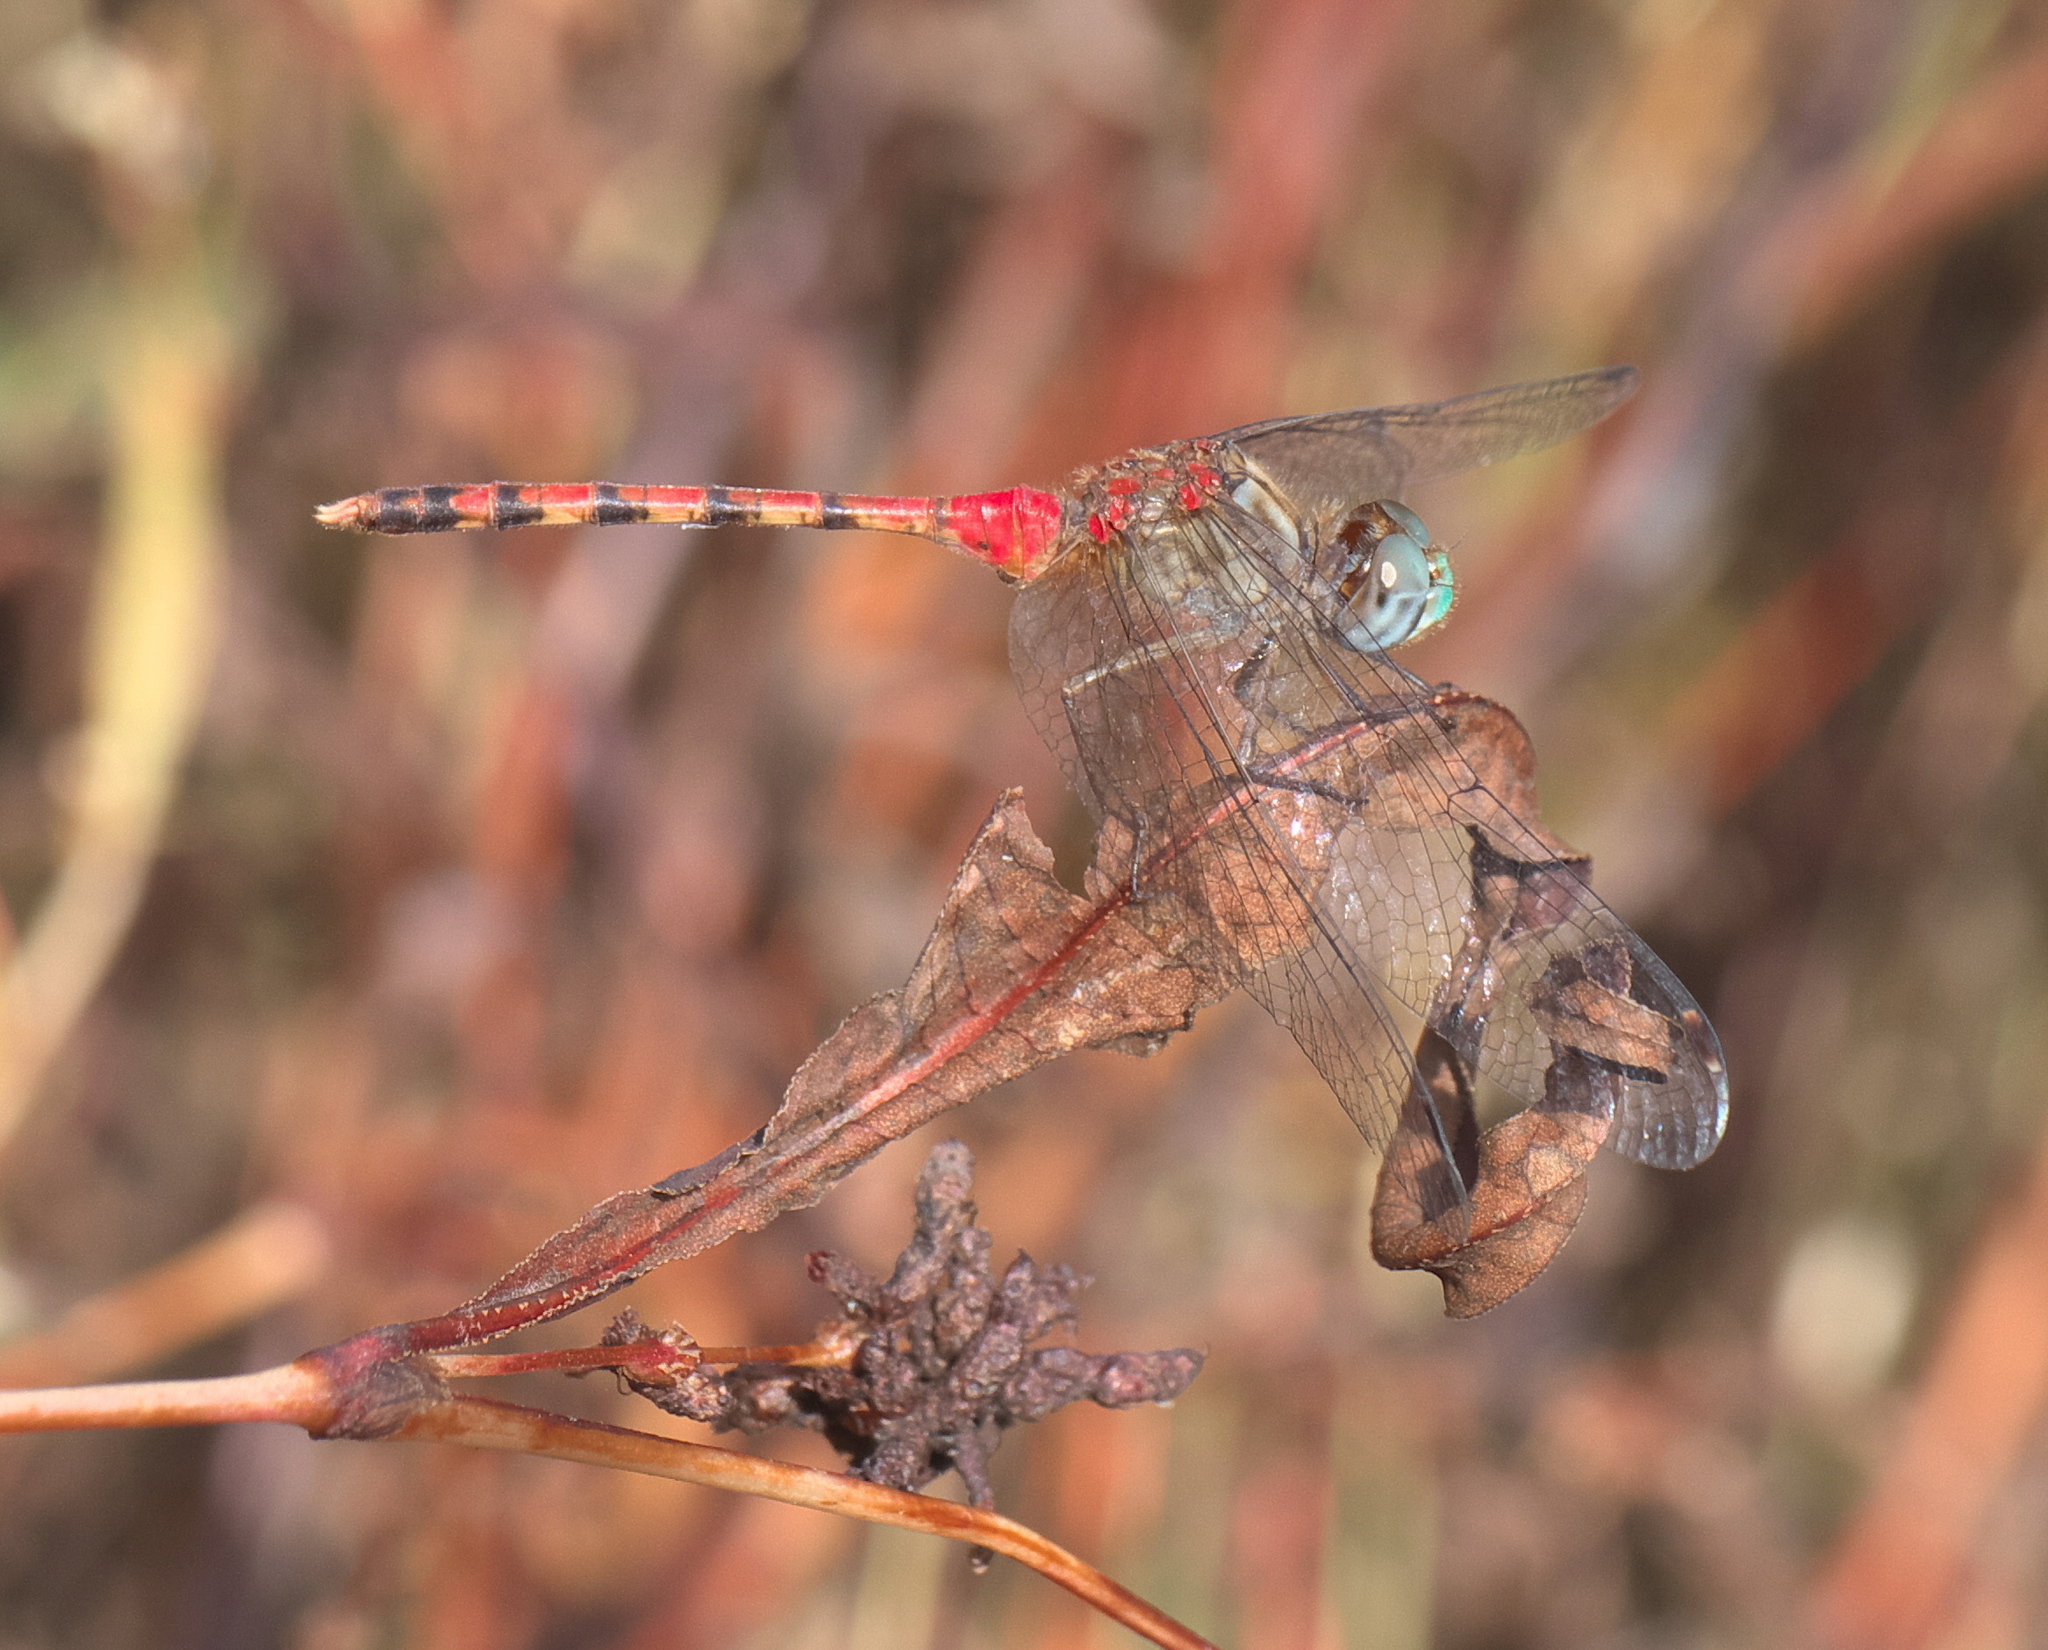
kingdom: Animalia
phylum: Arthropoda
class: Insecta
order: Odonata
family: Libellulidae
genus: Sympetrum
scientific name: Sympetrum ambiguum
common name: Blue-faced meadowhawk
